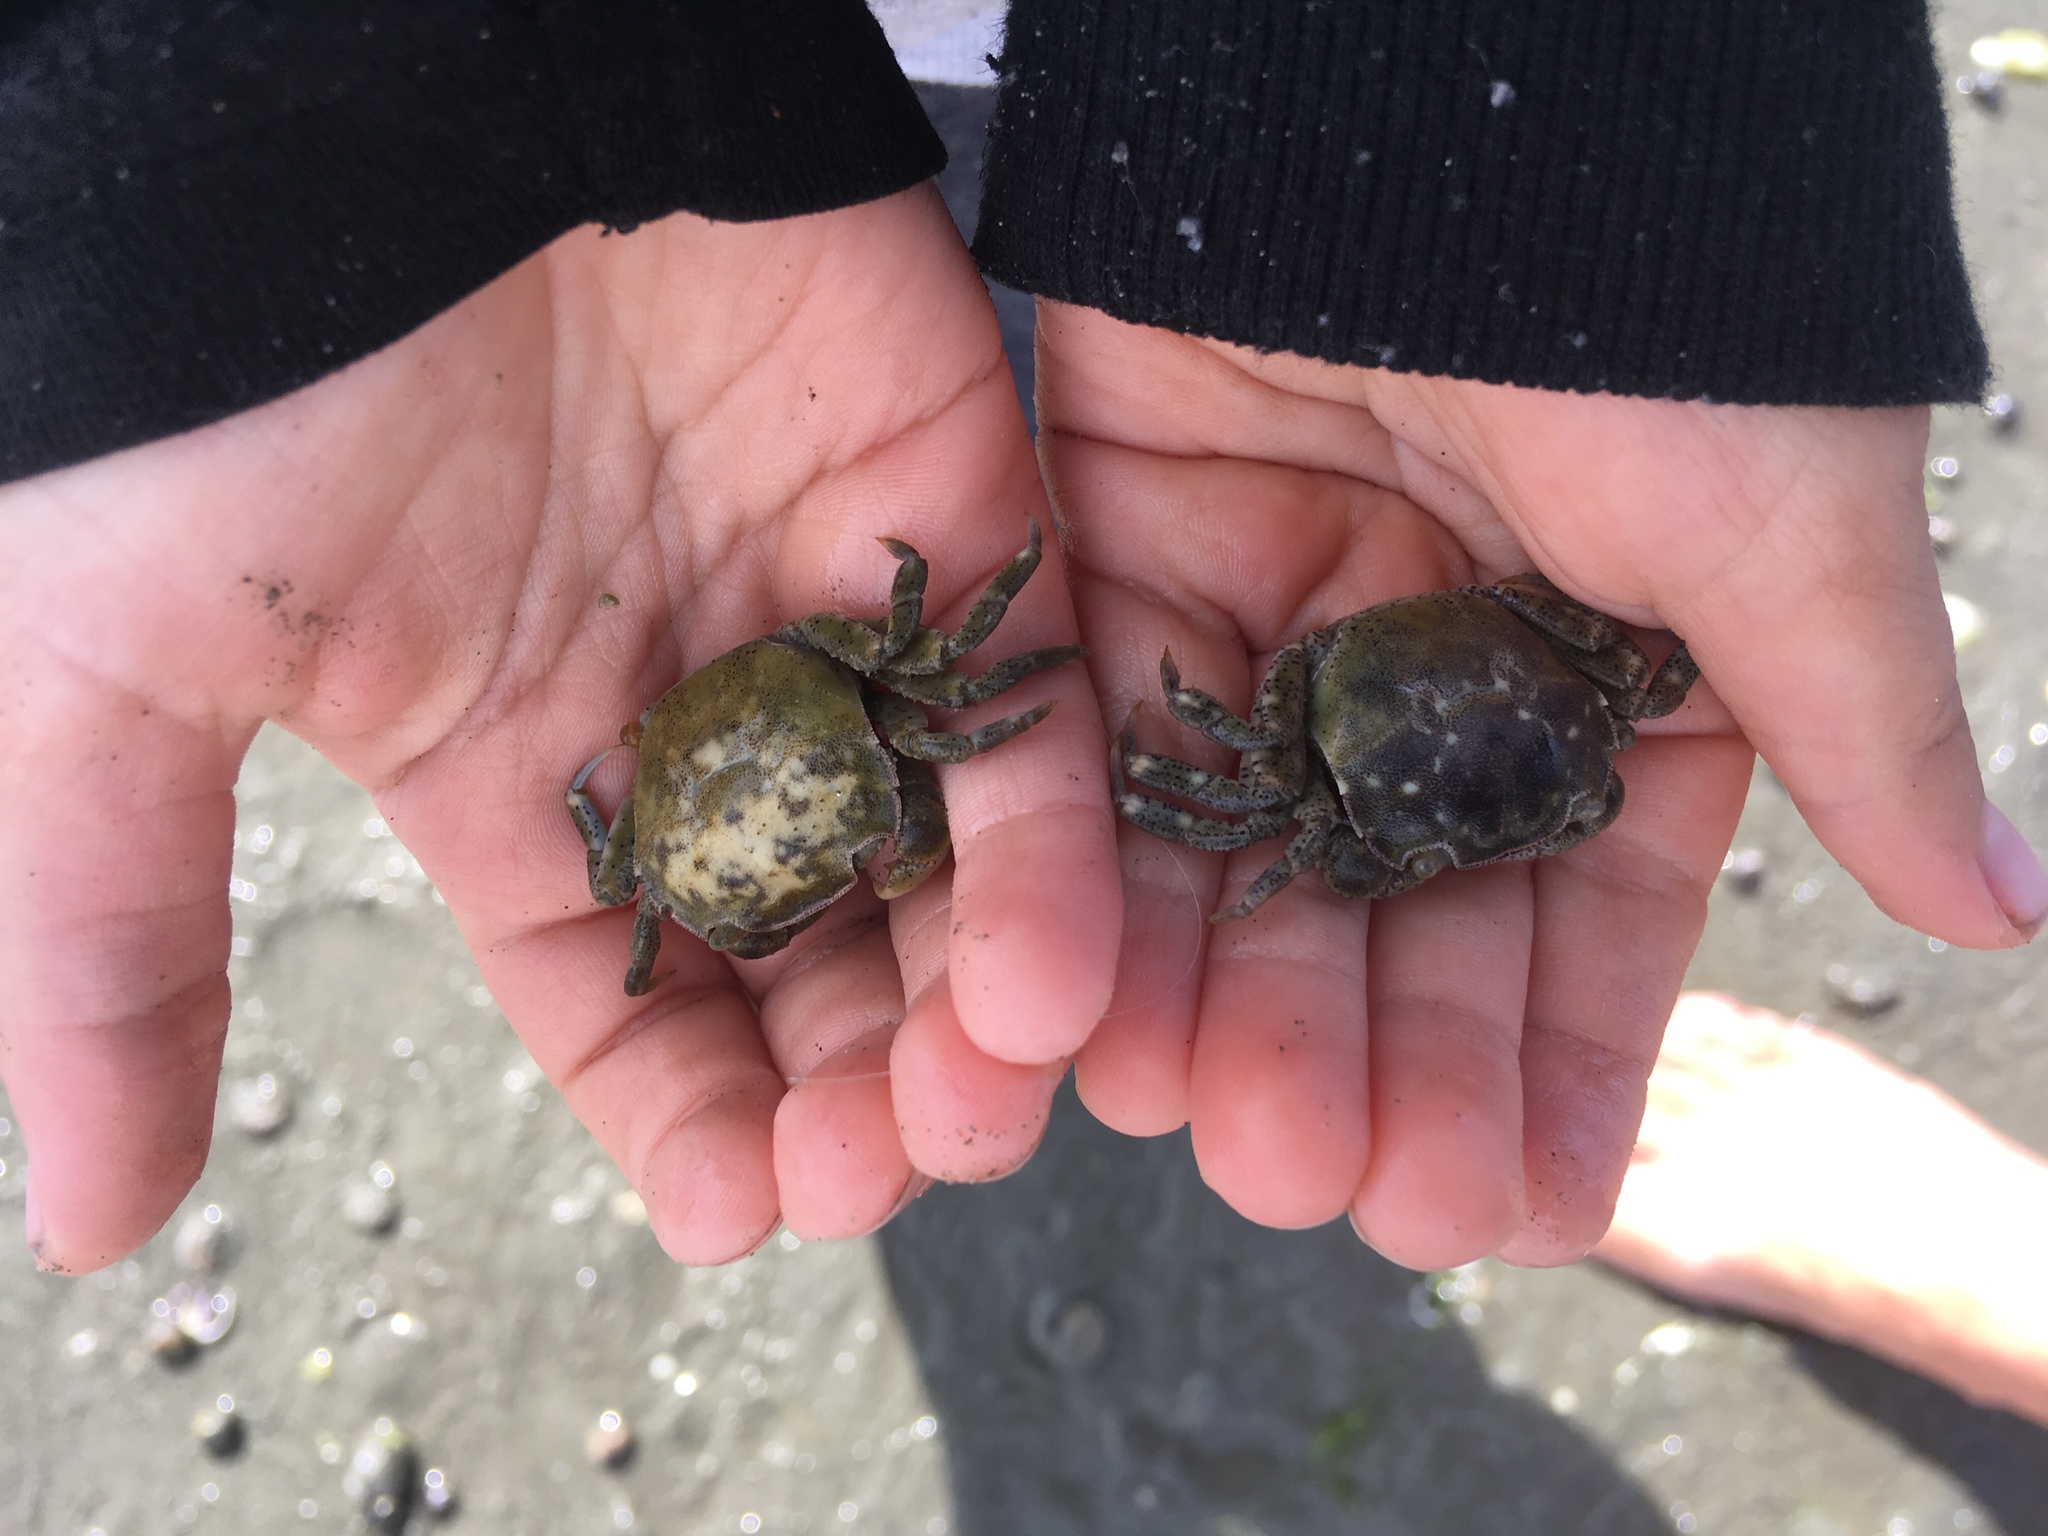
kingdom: Animalia
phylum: Arthropoda
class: Malacostraca
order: Decapoda
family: Varunidae
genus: Hemigrapsus
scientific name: Hemigrapsus crenulatus
